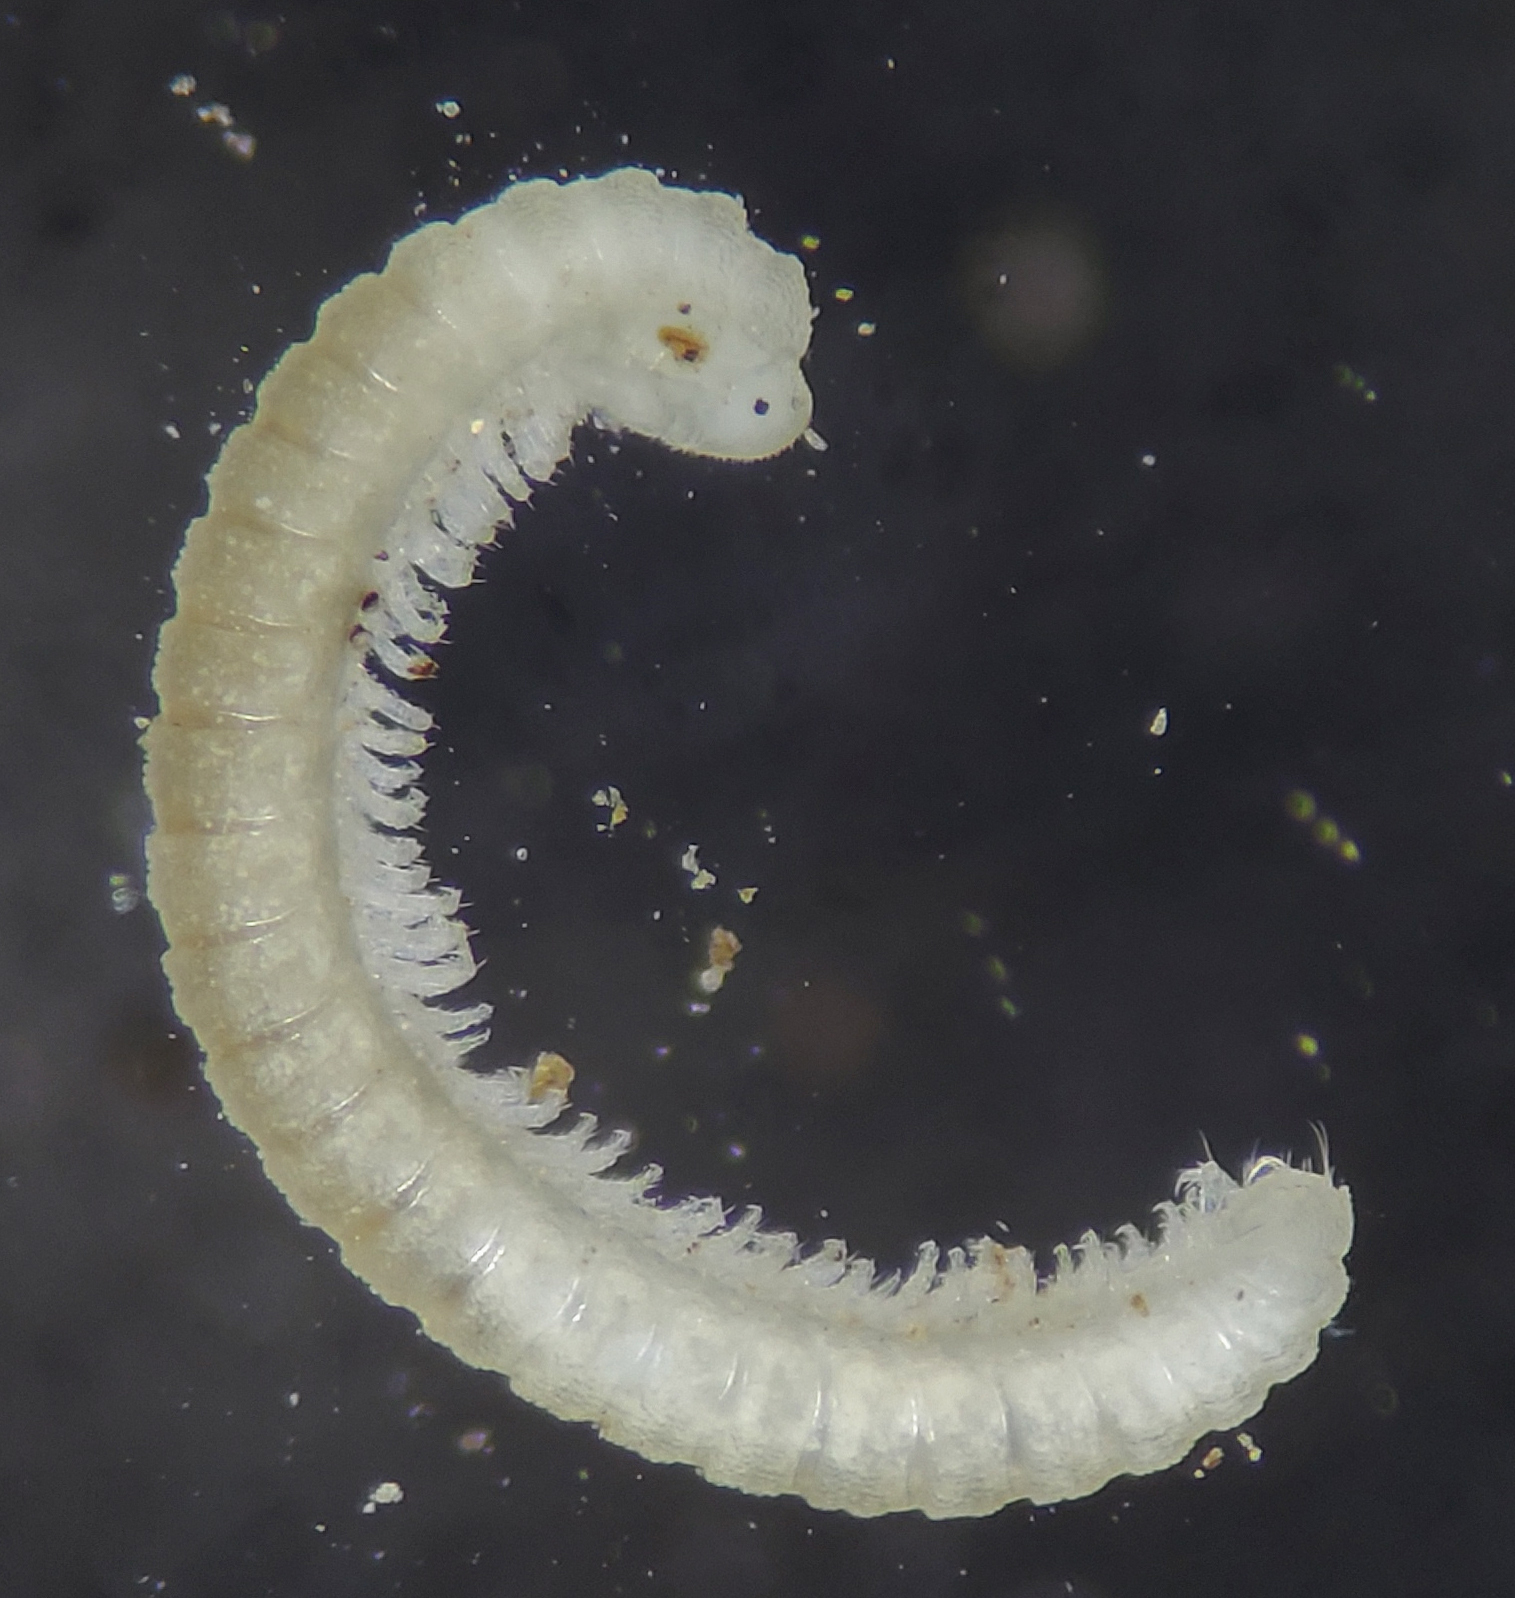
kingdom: Animalia
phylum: Arthropoda
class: Diplopoda
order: Chordeumatida
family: Buotidae
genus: Buotus
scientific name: Buotus carolinus
